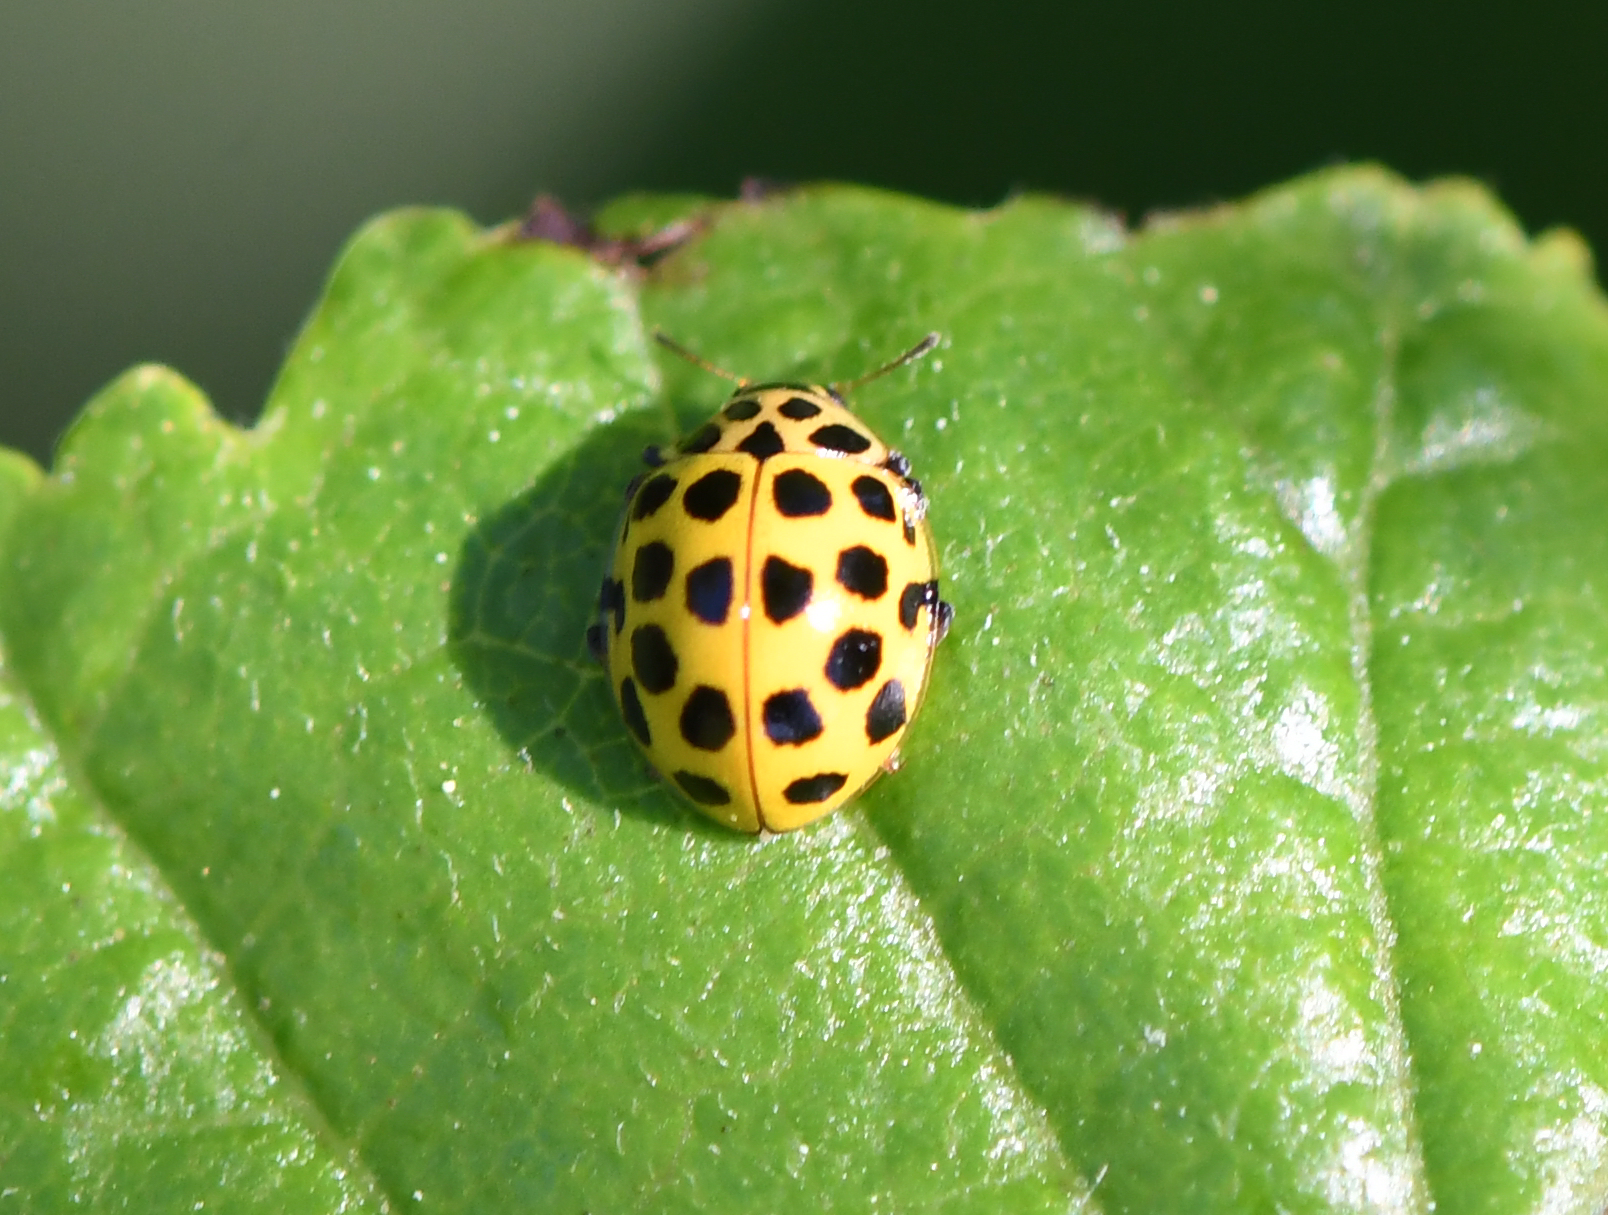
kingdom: Animalia
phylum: Arthropoda
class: Insecta
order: Coleoptera
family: Coccinellidae
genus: Psyllobora
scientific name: Psyllobora vigintiduopunctata
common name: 22-spot ladybird
